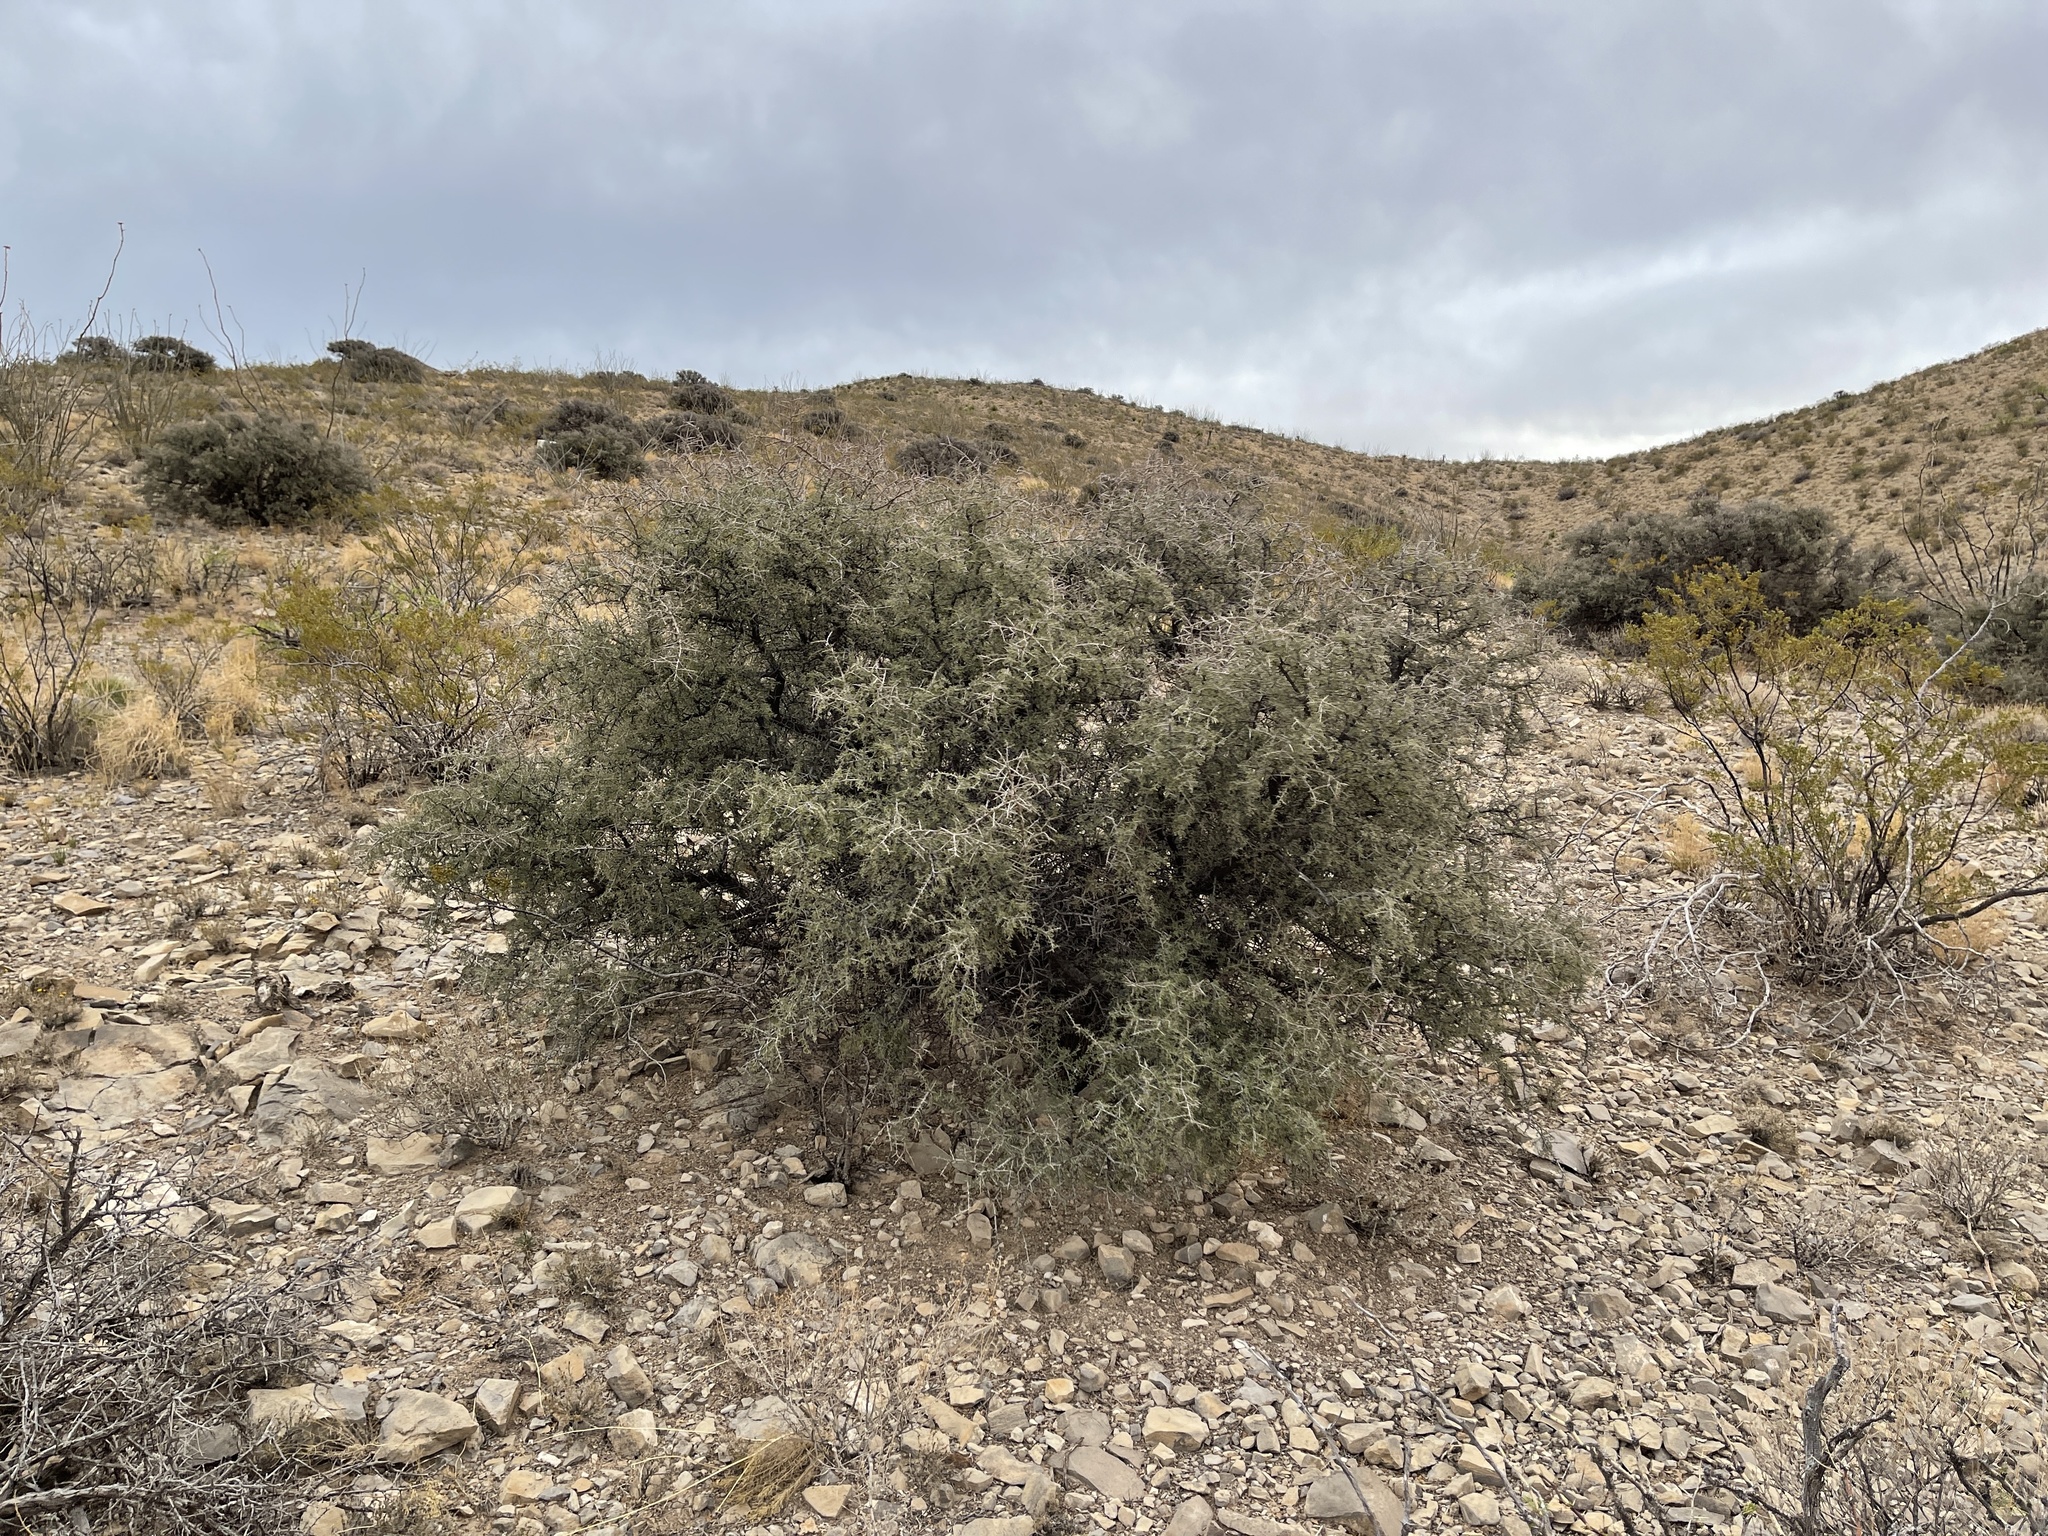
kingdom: Plantae
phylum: Tracheophyta
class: Magnoliopsida
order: Rosales
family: Rhamnaceae
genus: Condalia
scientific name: Condalia warnockii
